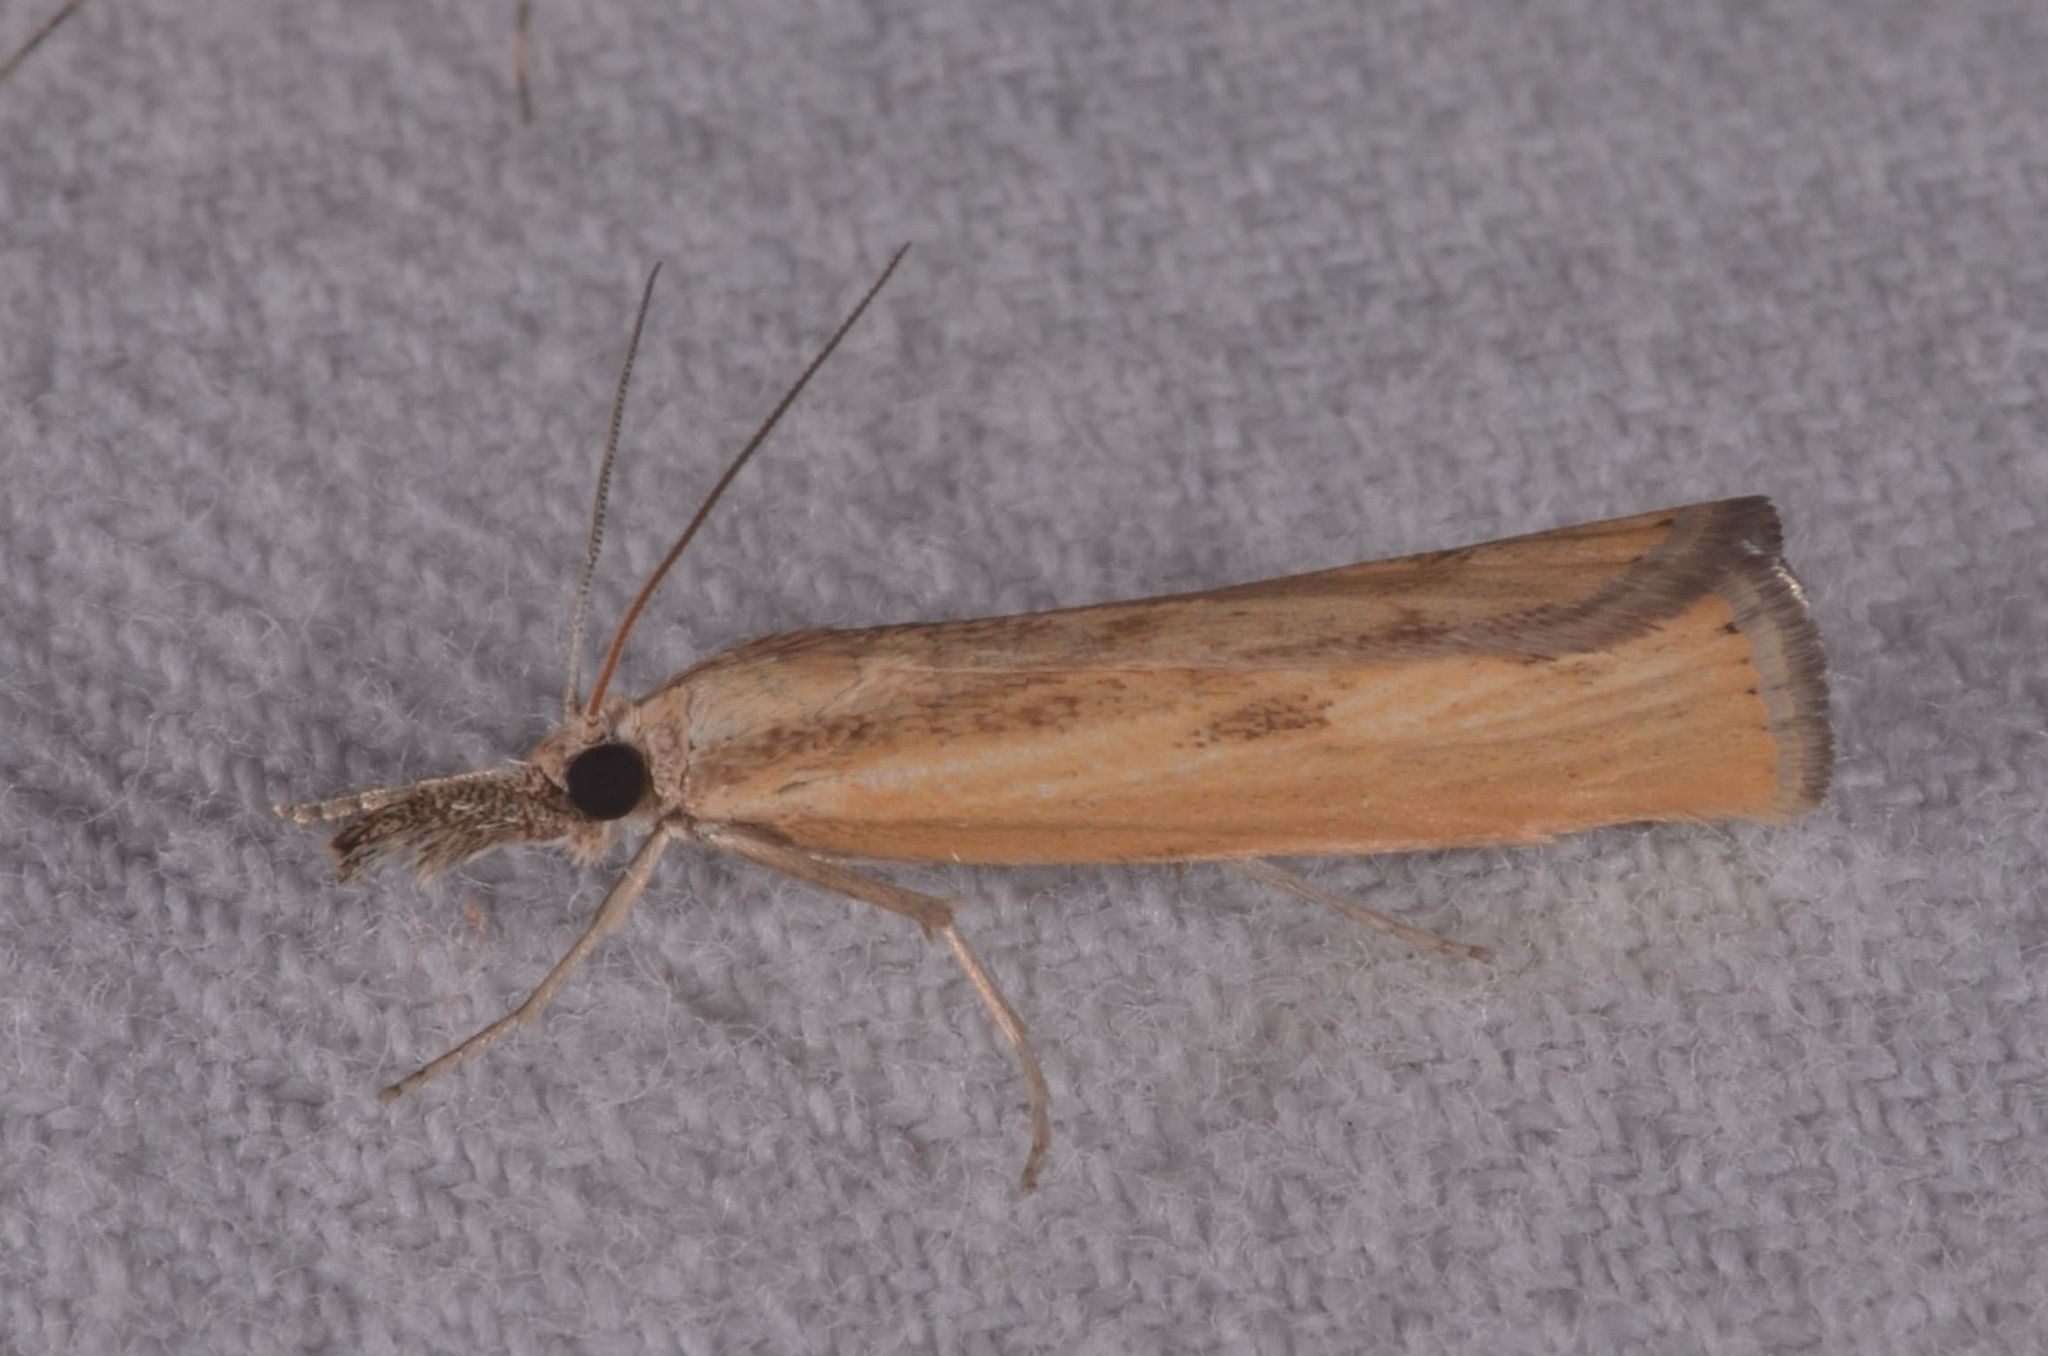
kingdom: Animalia
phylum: Arthropoda
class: Insecta
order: Lepidoptera
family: Crambidae
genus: Agriphila
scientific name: Agriphila inquinatella
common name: Barred grass-veneer
